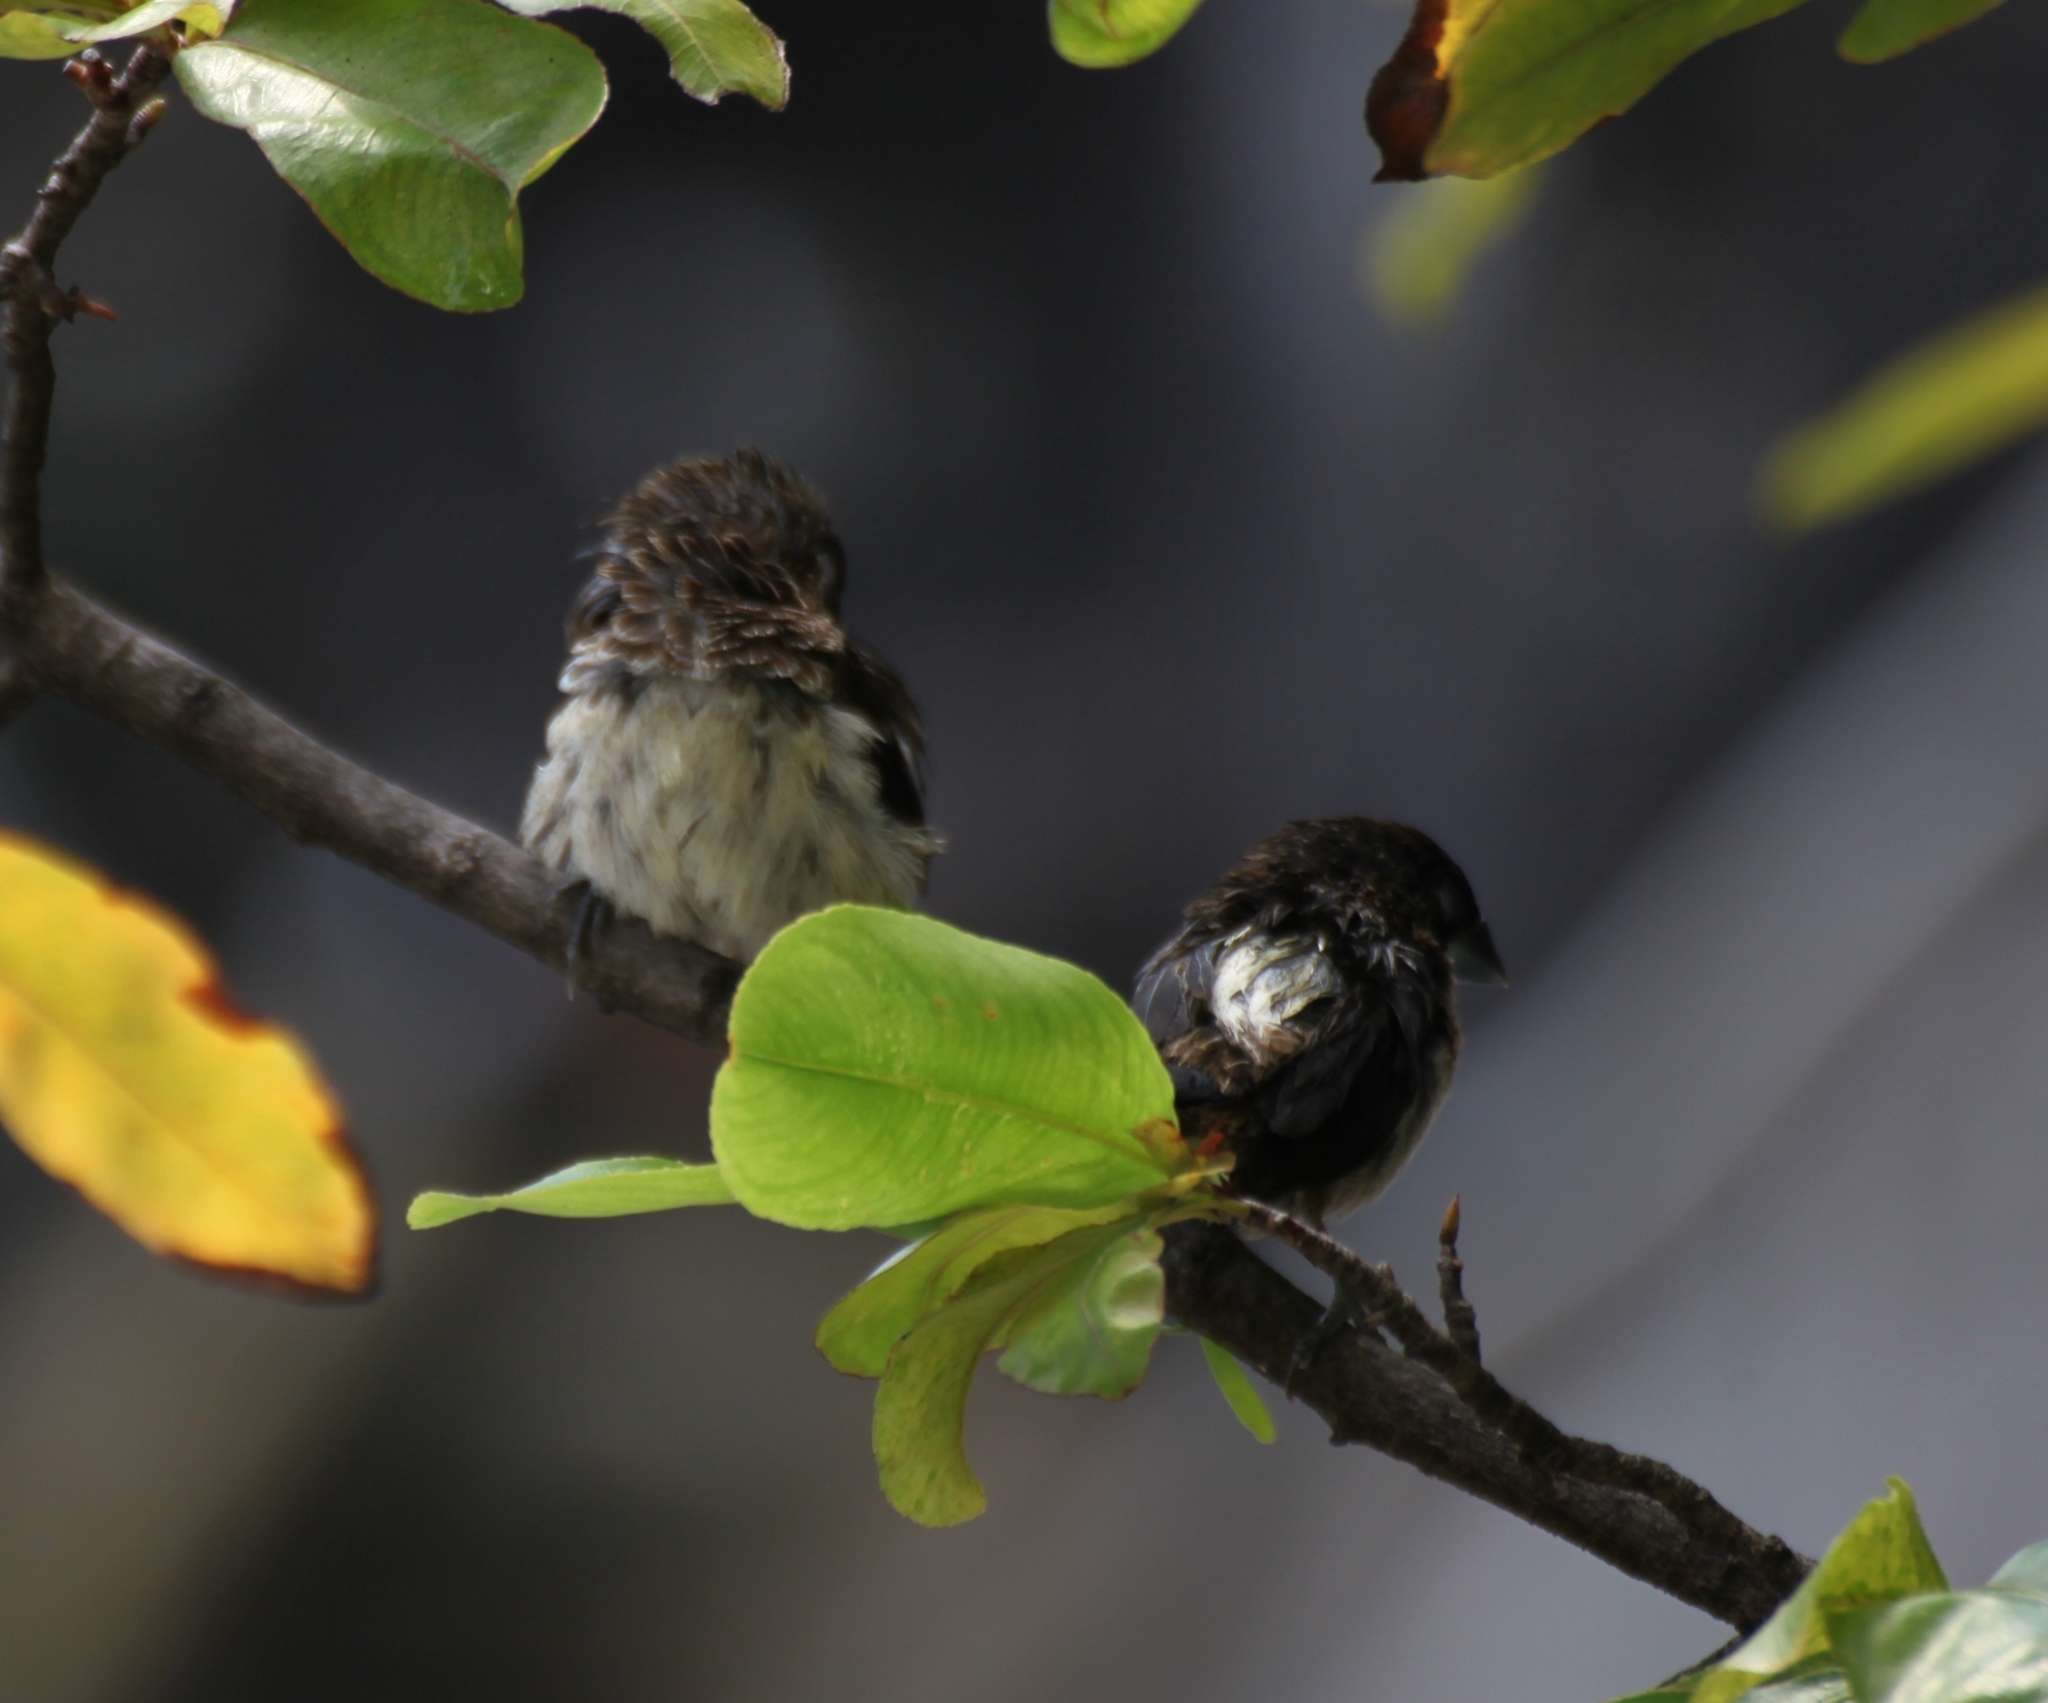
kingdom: Animalia
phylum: Chordata
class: Aves
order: Passeriformes
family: Estrildidae
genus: Lonchura
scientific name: Lonchura striata
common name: White-rumped munia
